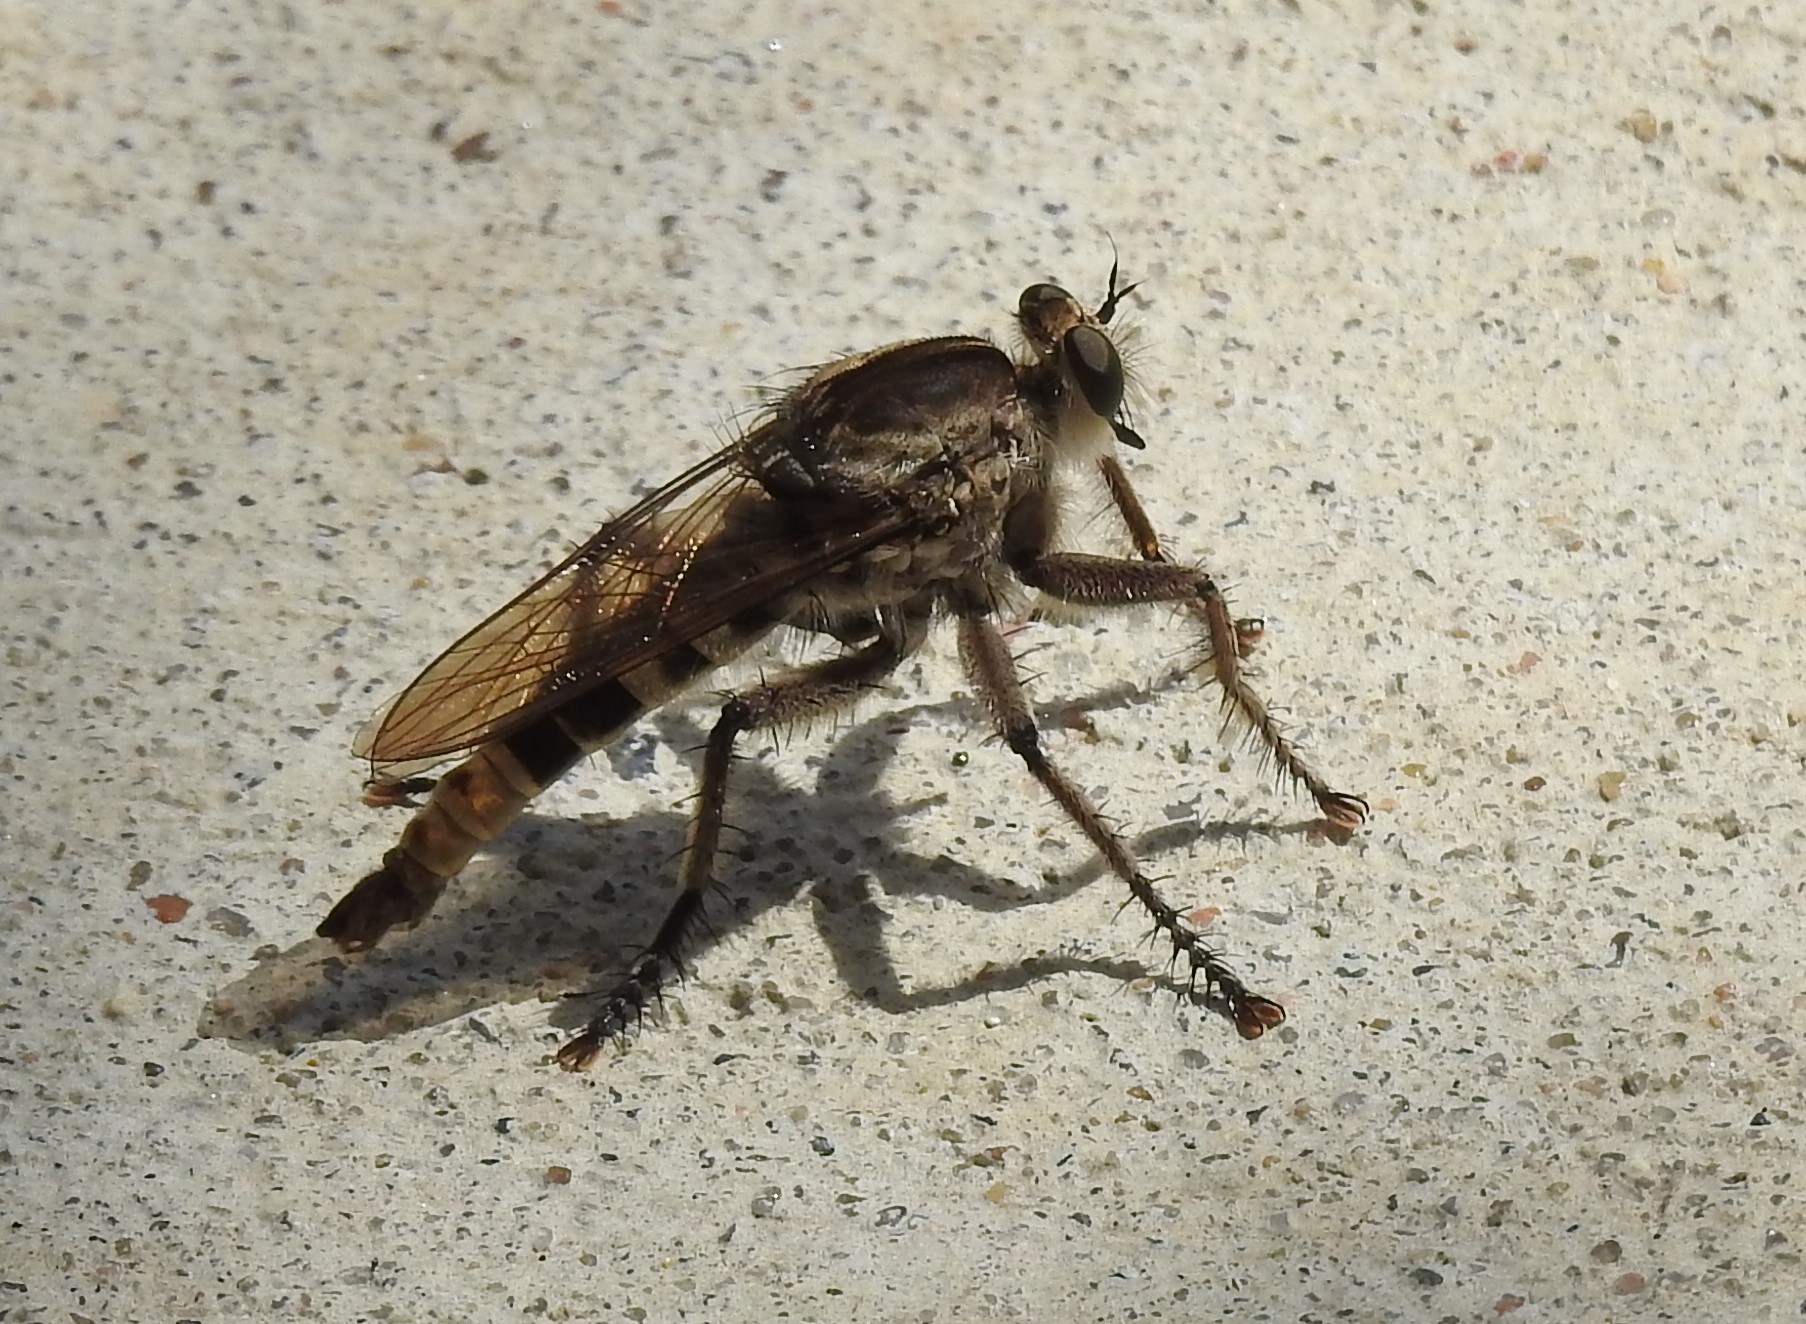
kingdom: Animalia
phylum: Arthropoda
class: Insecta
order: Diptera
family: Asilidae
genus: Triorla
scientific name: Triorla interrupta
